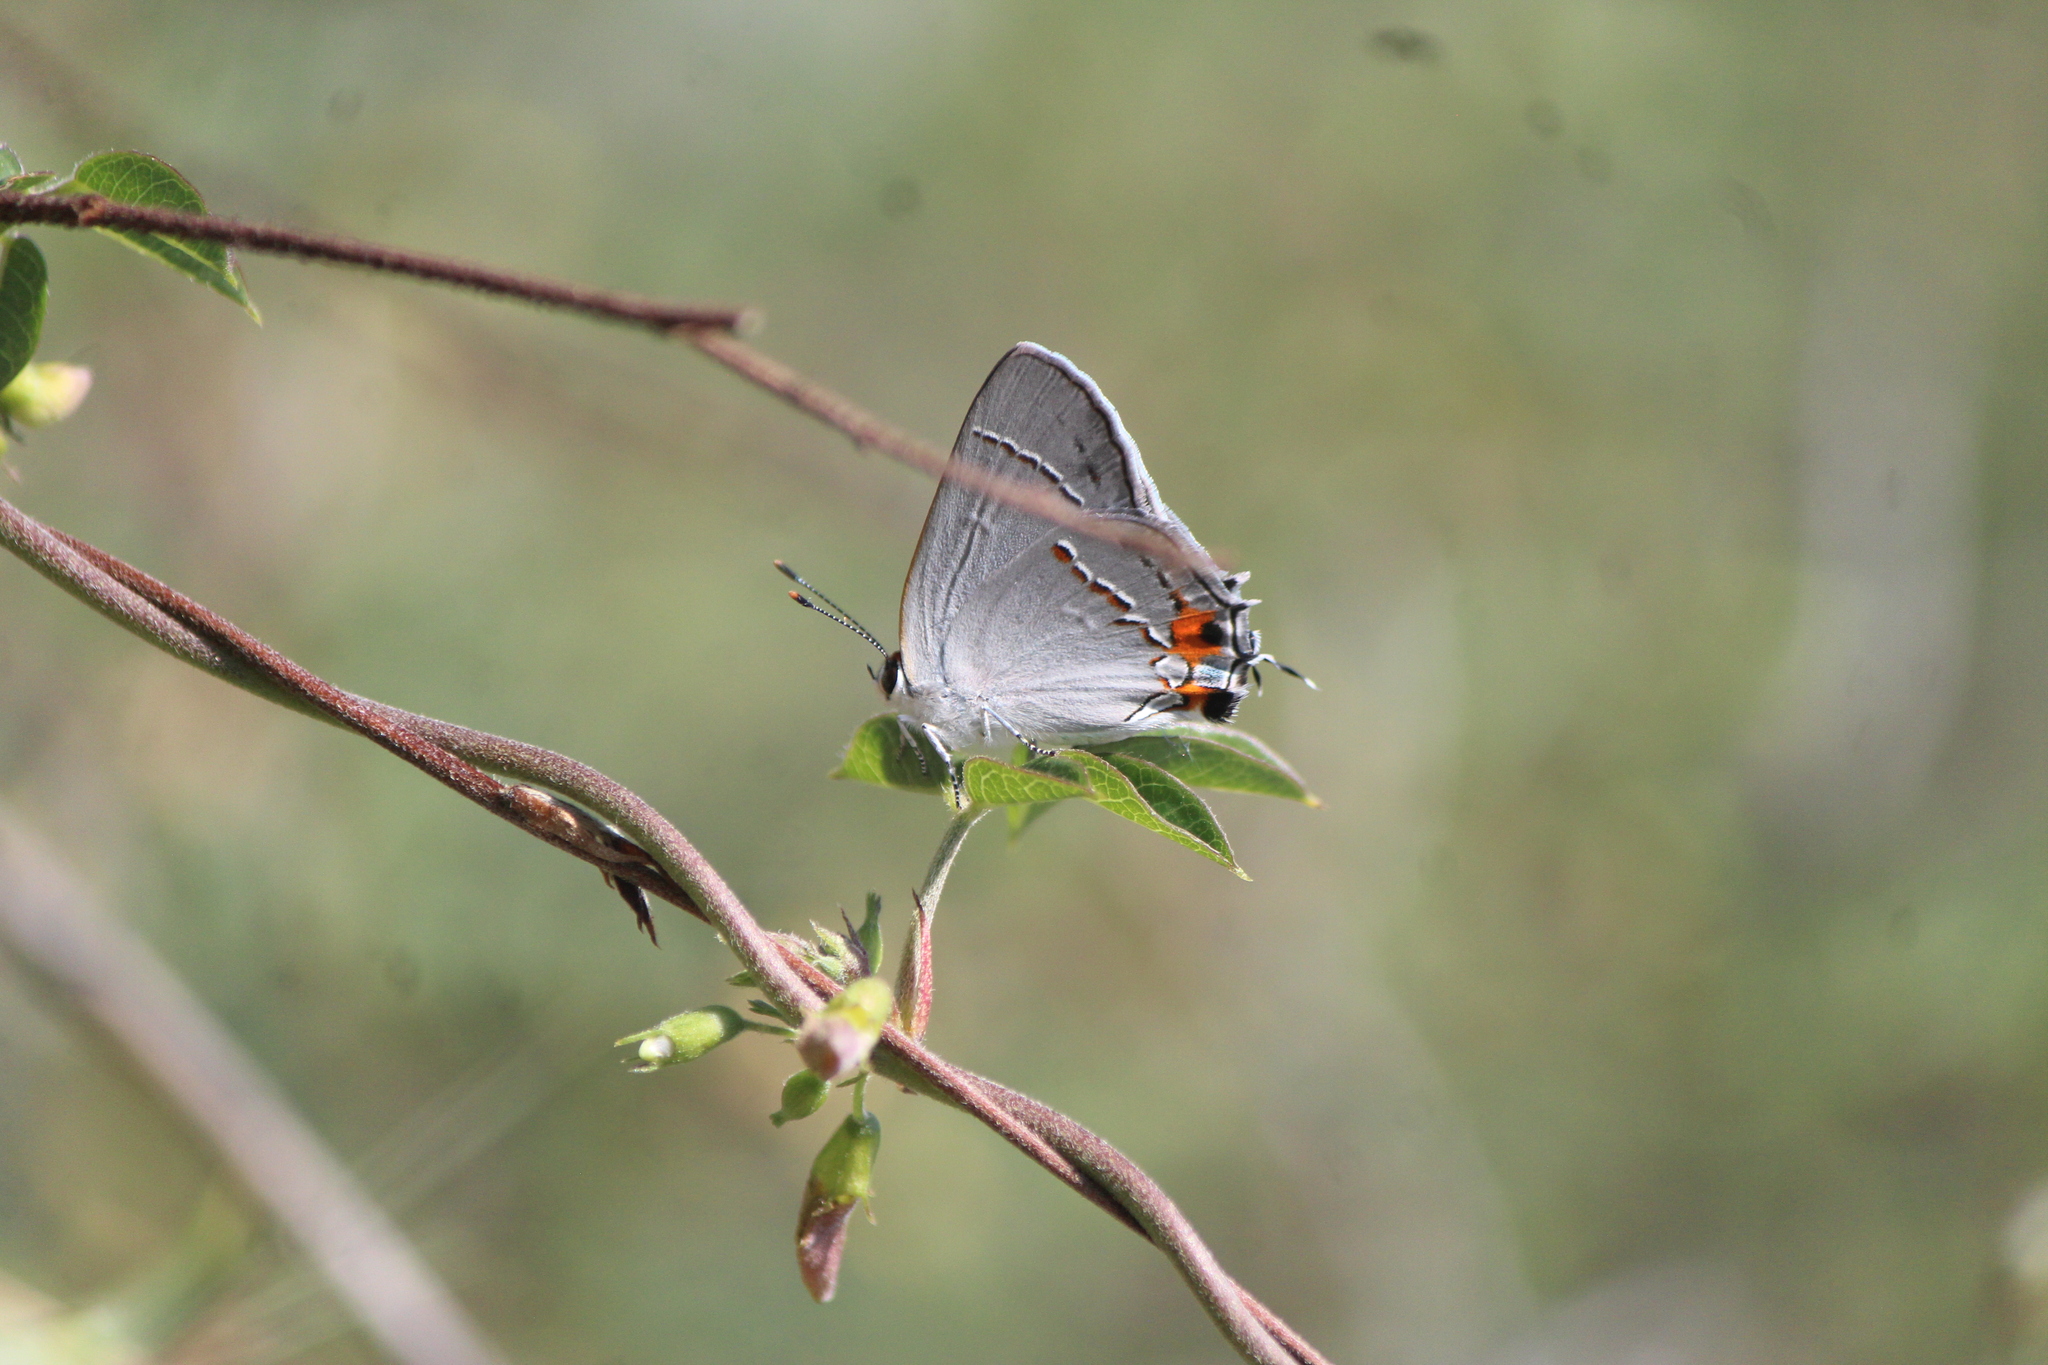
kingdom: Animalia
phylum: Arthropoda
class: Insecta
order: Lepidoptera
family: Lycaenidae
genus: Strymon
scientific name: Strymon melinus
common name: Gray hairstreak
